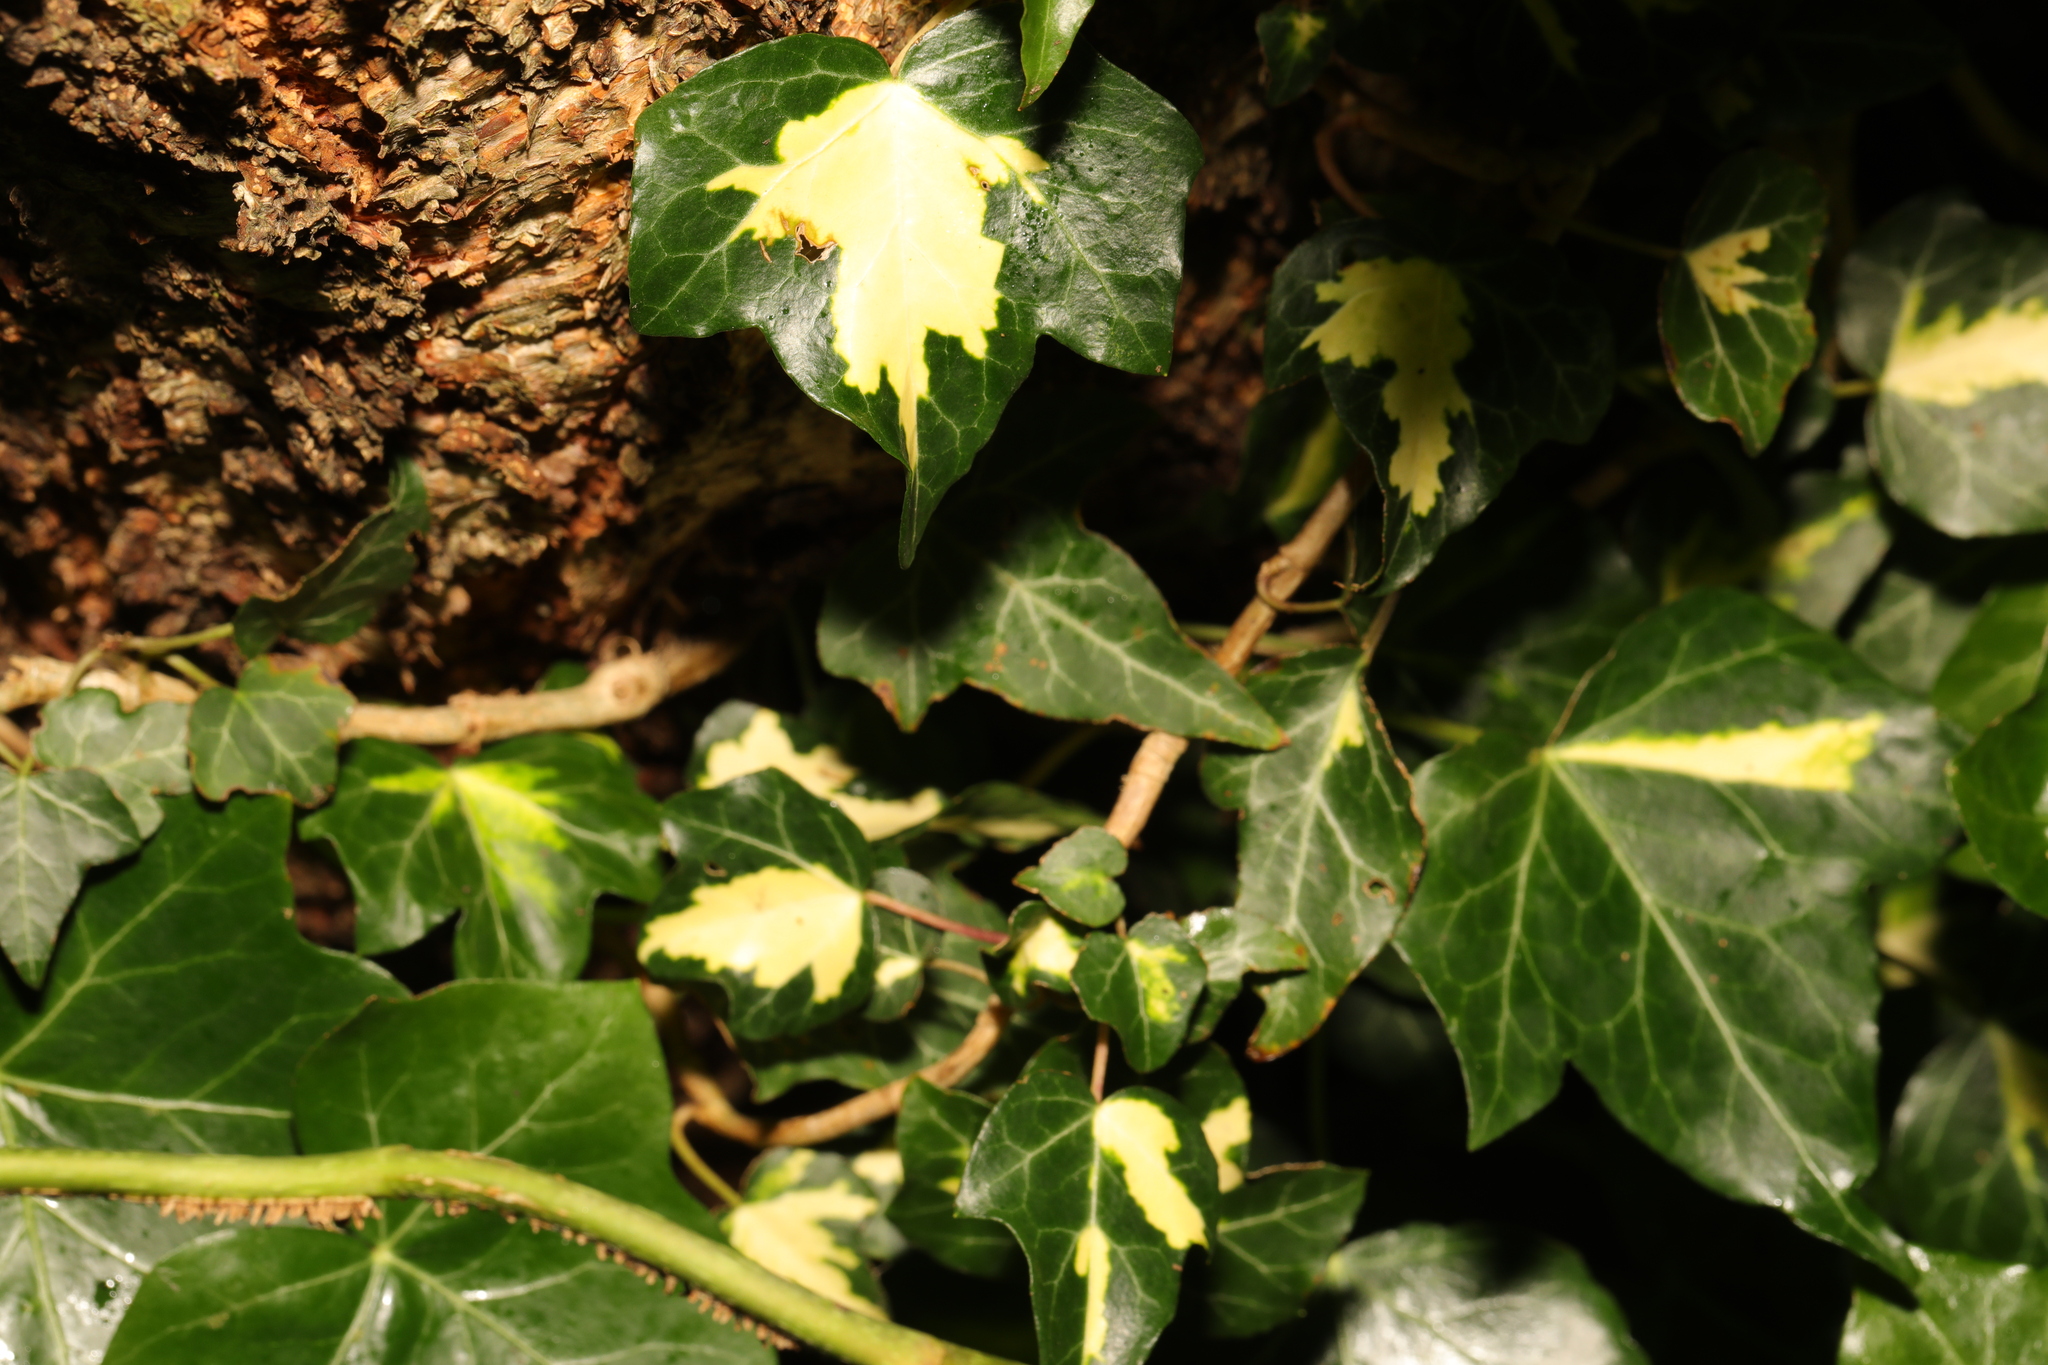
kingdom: Plantae
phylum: Tracheophyta
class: Magnoliopsida
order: Apiales
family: Araliaceae
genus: Hedera
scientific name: Hedera helix
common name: Ivy
